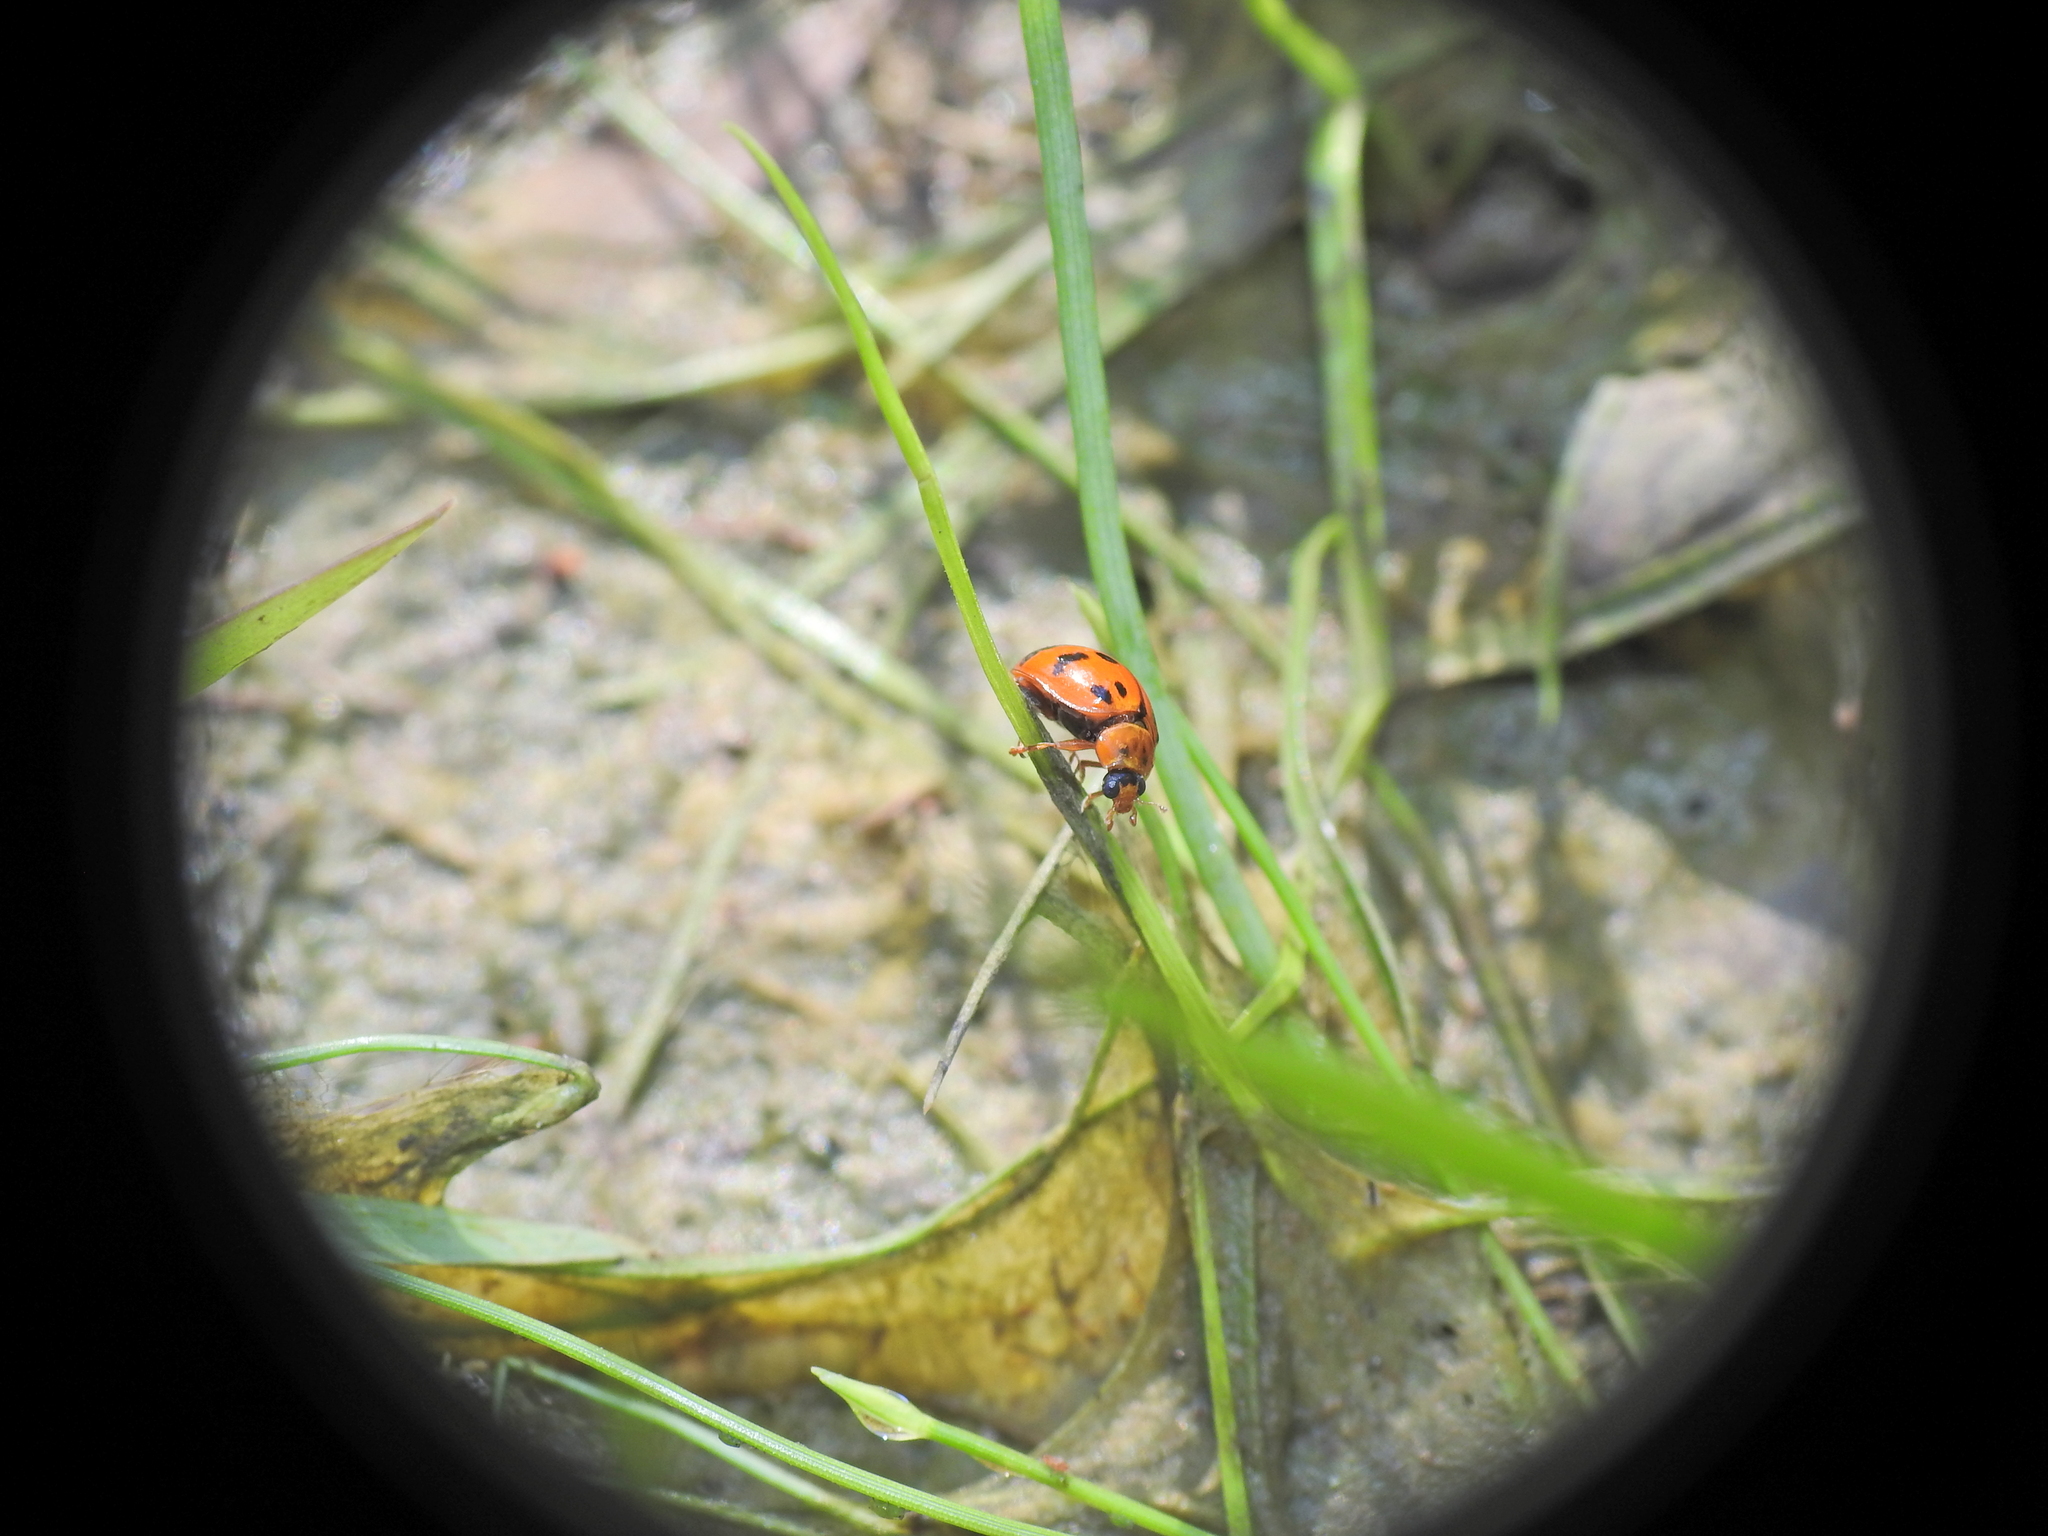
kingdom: Animalia
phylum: Arthropoda
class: Insecta
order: Coleoptera
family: Coccinellidae
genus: Harmonia
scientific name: Harmonia octomaculata
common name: Lady beetle
